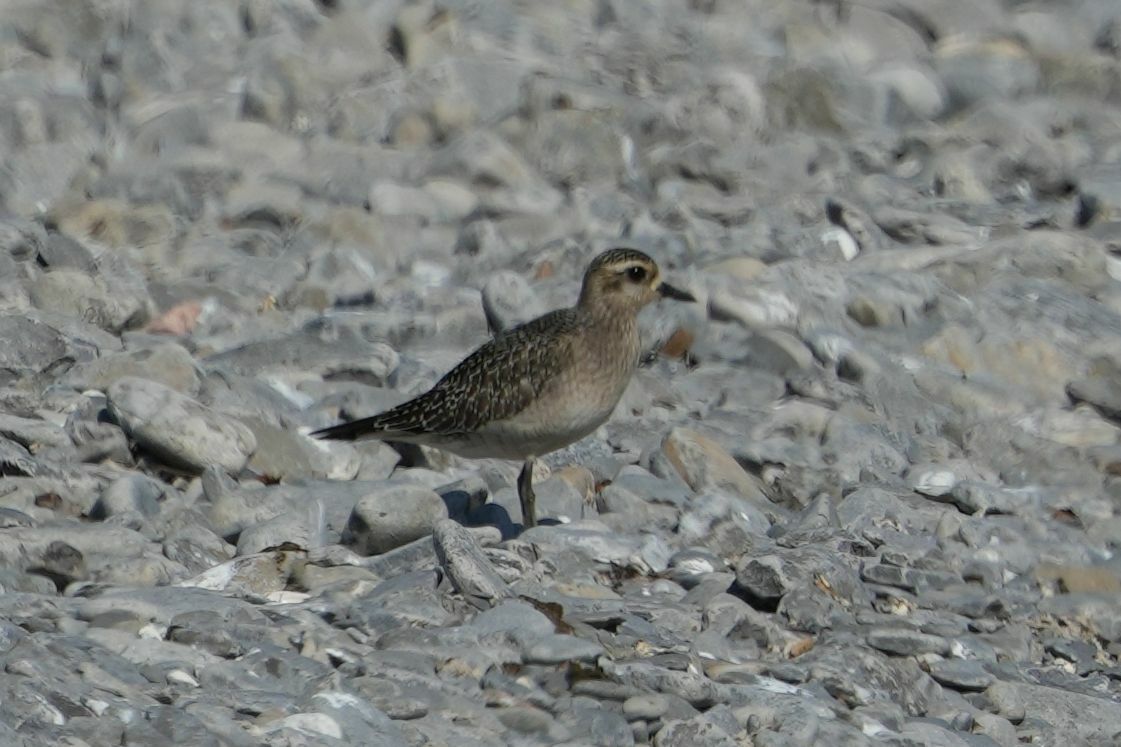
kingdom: Animalia
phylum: Chordata
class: Aves
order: Charadriiformes
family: Charadriidae
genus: Pluvialis
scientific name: Pluvialis dominica
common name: American golden plover
